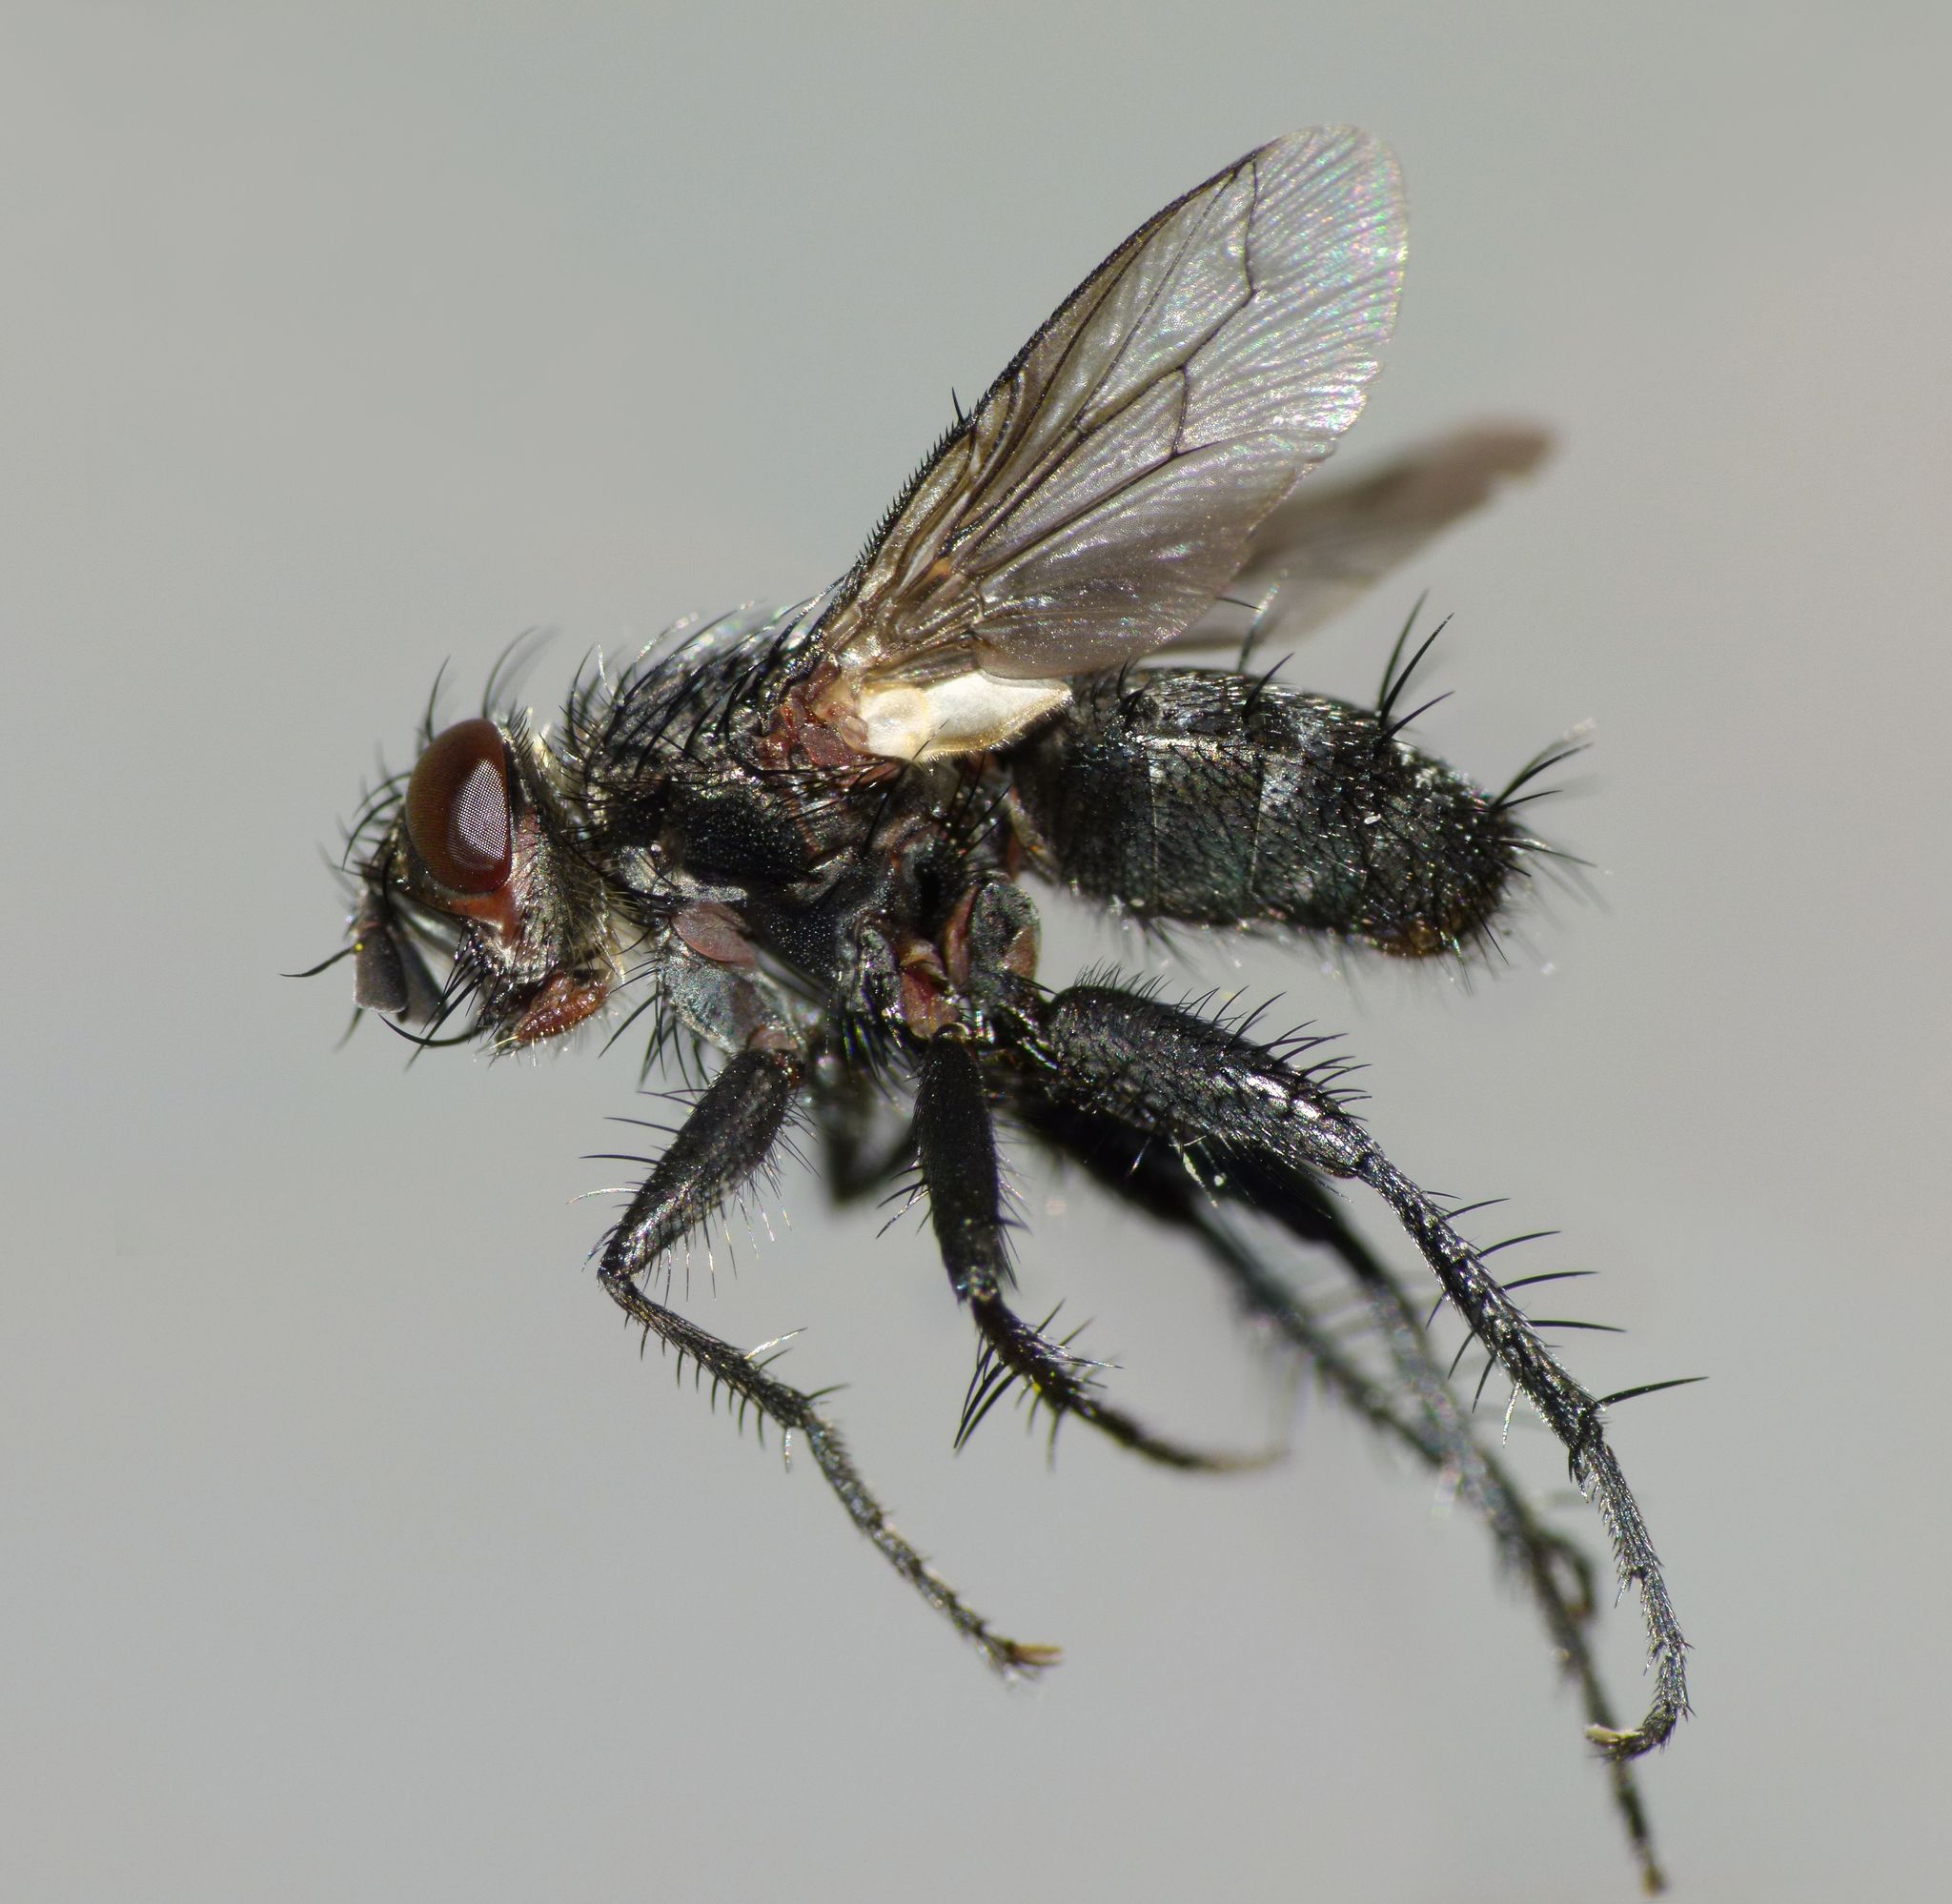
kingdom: Animalia
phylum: Arthropoda
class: Insecta
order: Diptera
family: Tachinidae
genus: Plagiomyia
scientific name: Plagiomyia alticeps
